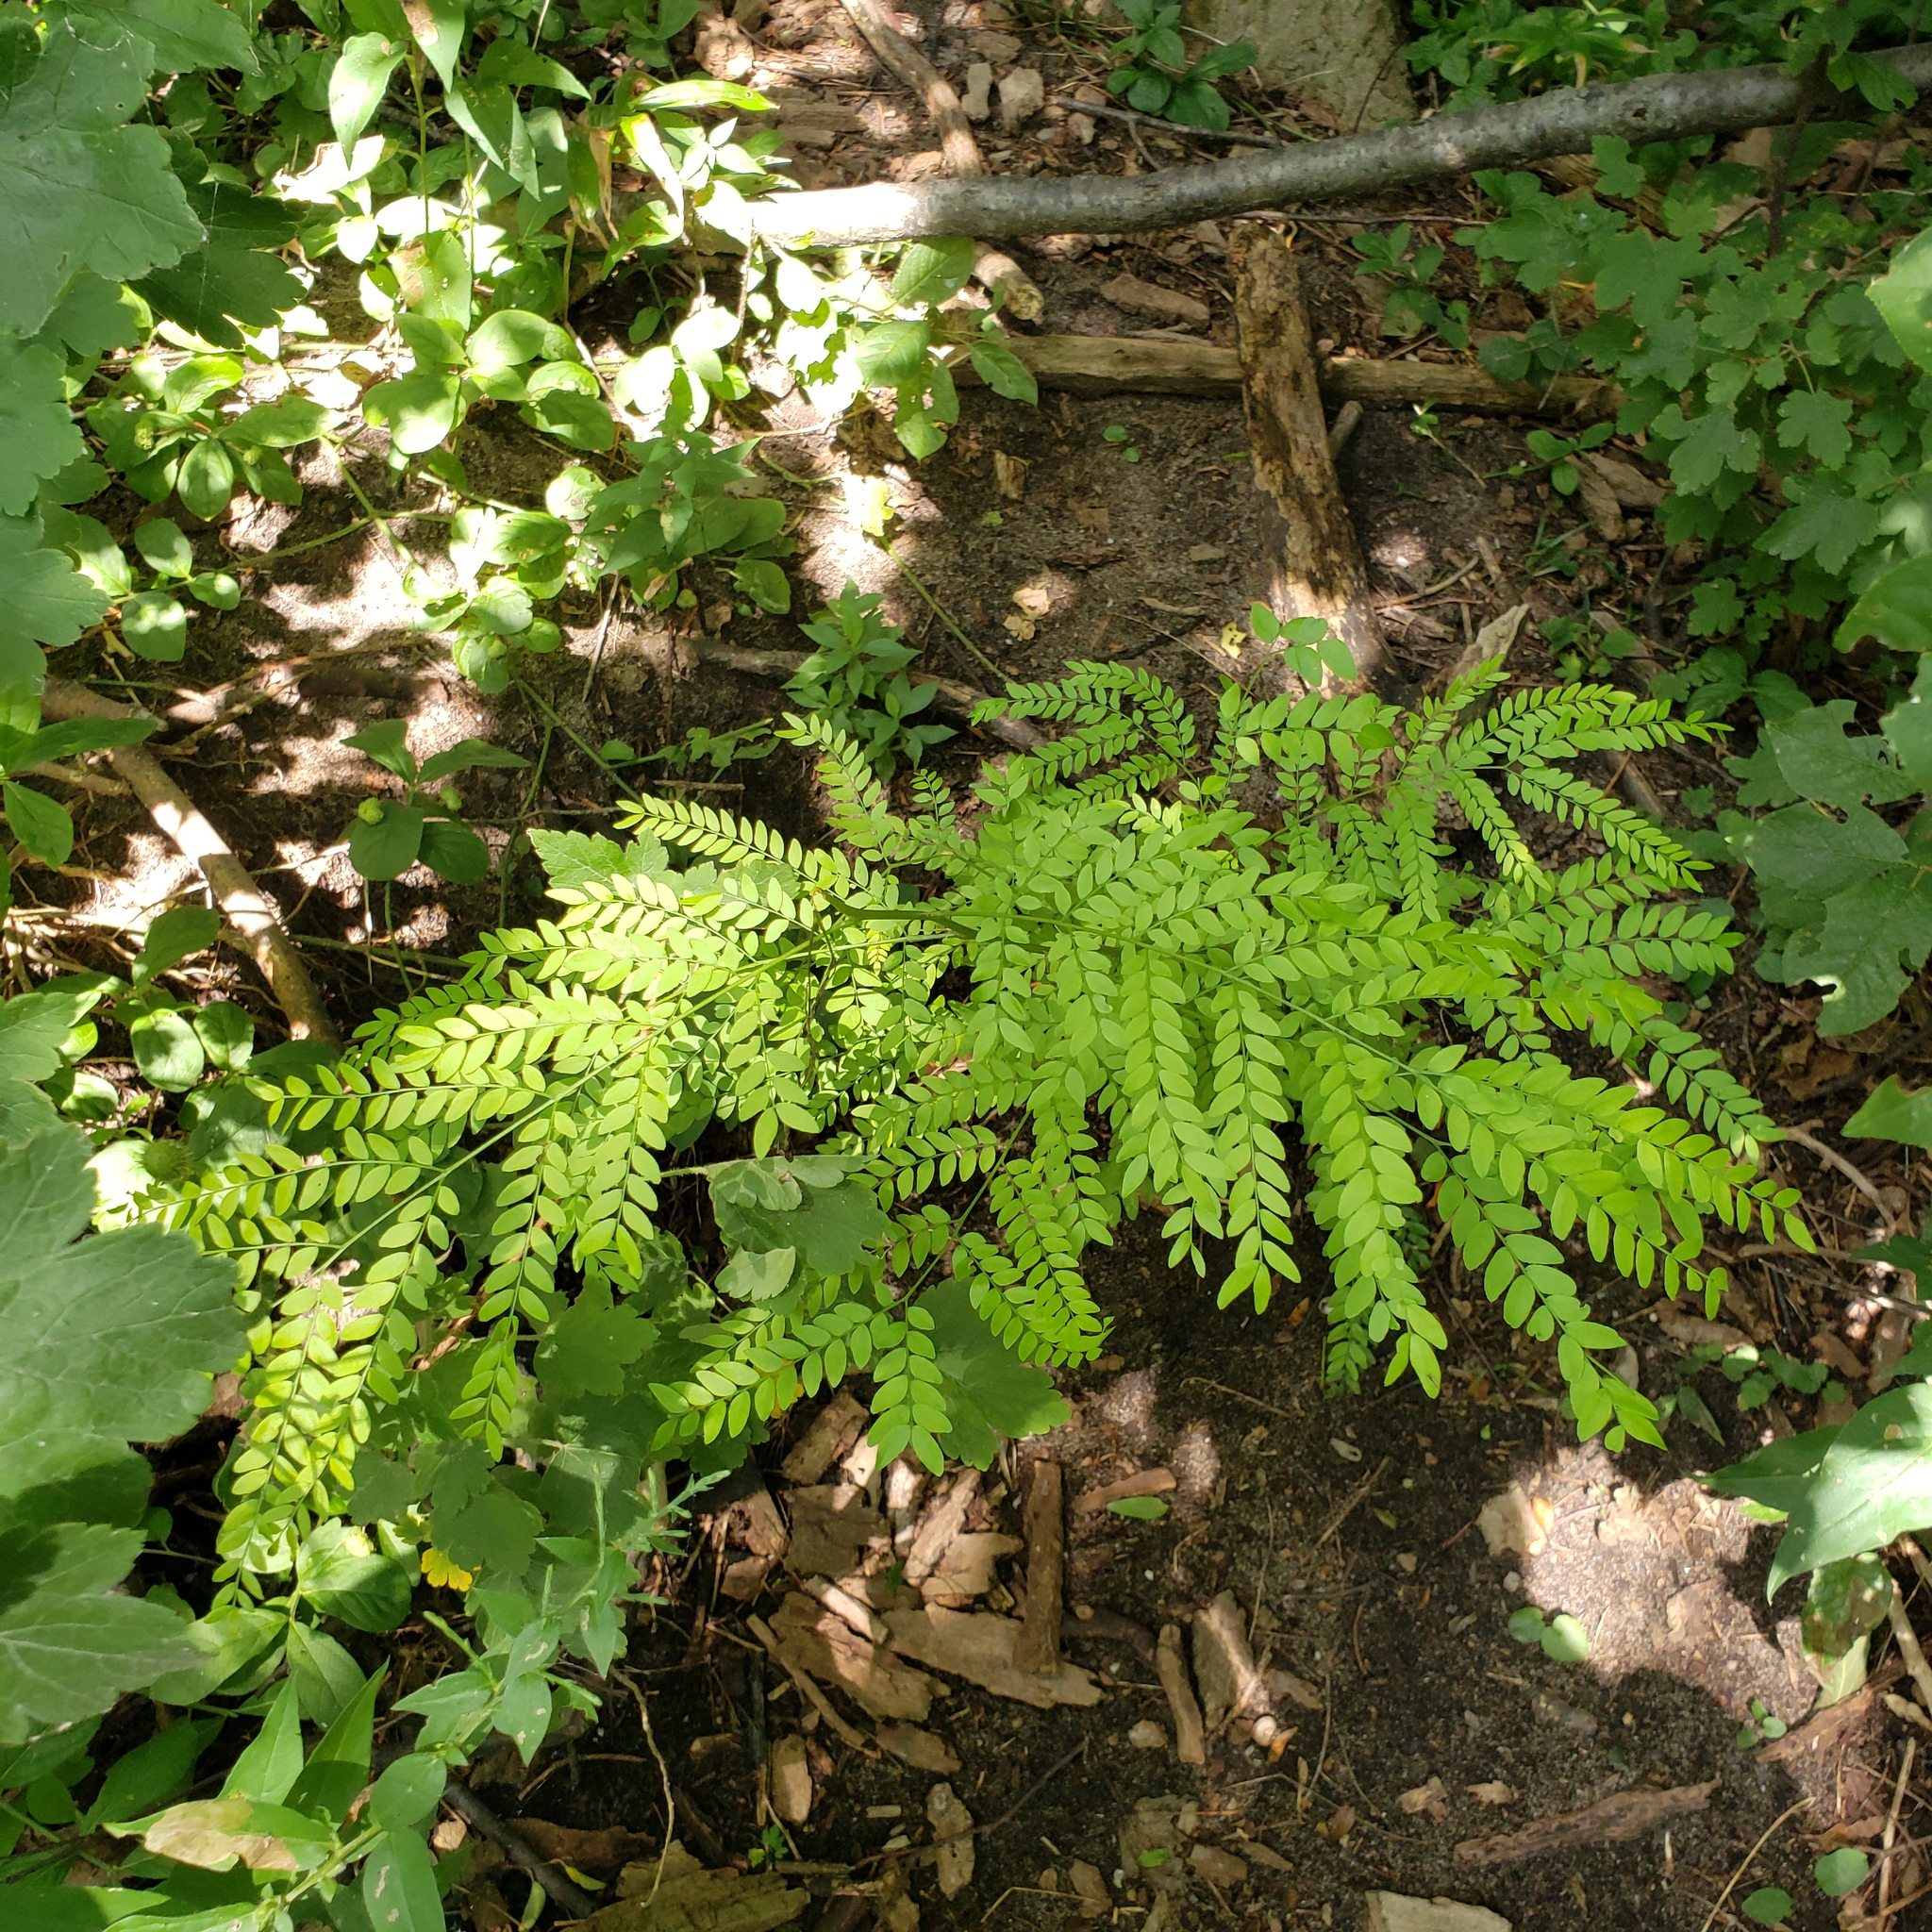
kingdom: Plantae
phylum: Tracheophyta
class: Magnoliopsida
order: Fabales
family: Fabaceae
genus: Gleditsia
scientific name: Gleditsia triacanthos
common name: Common honeylocust
